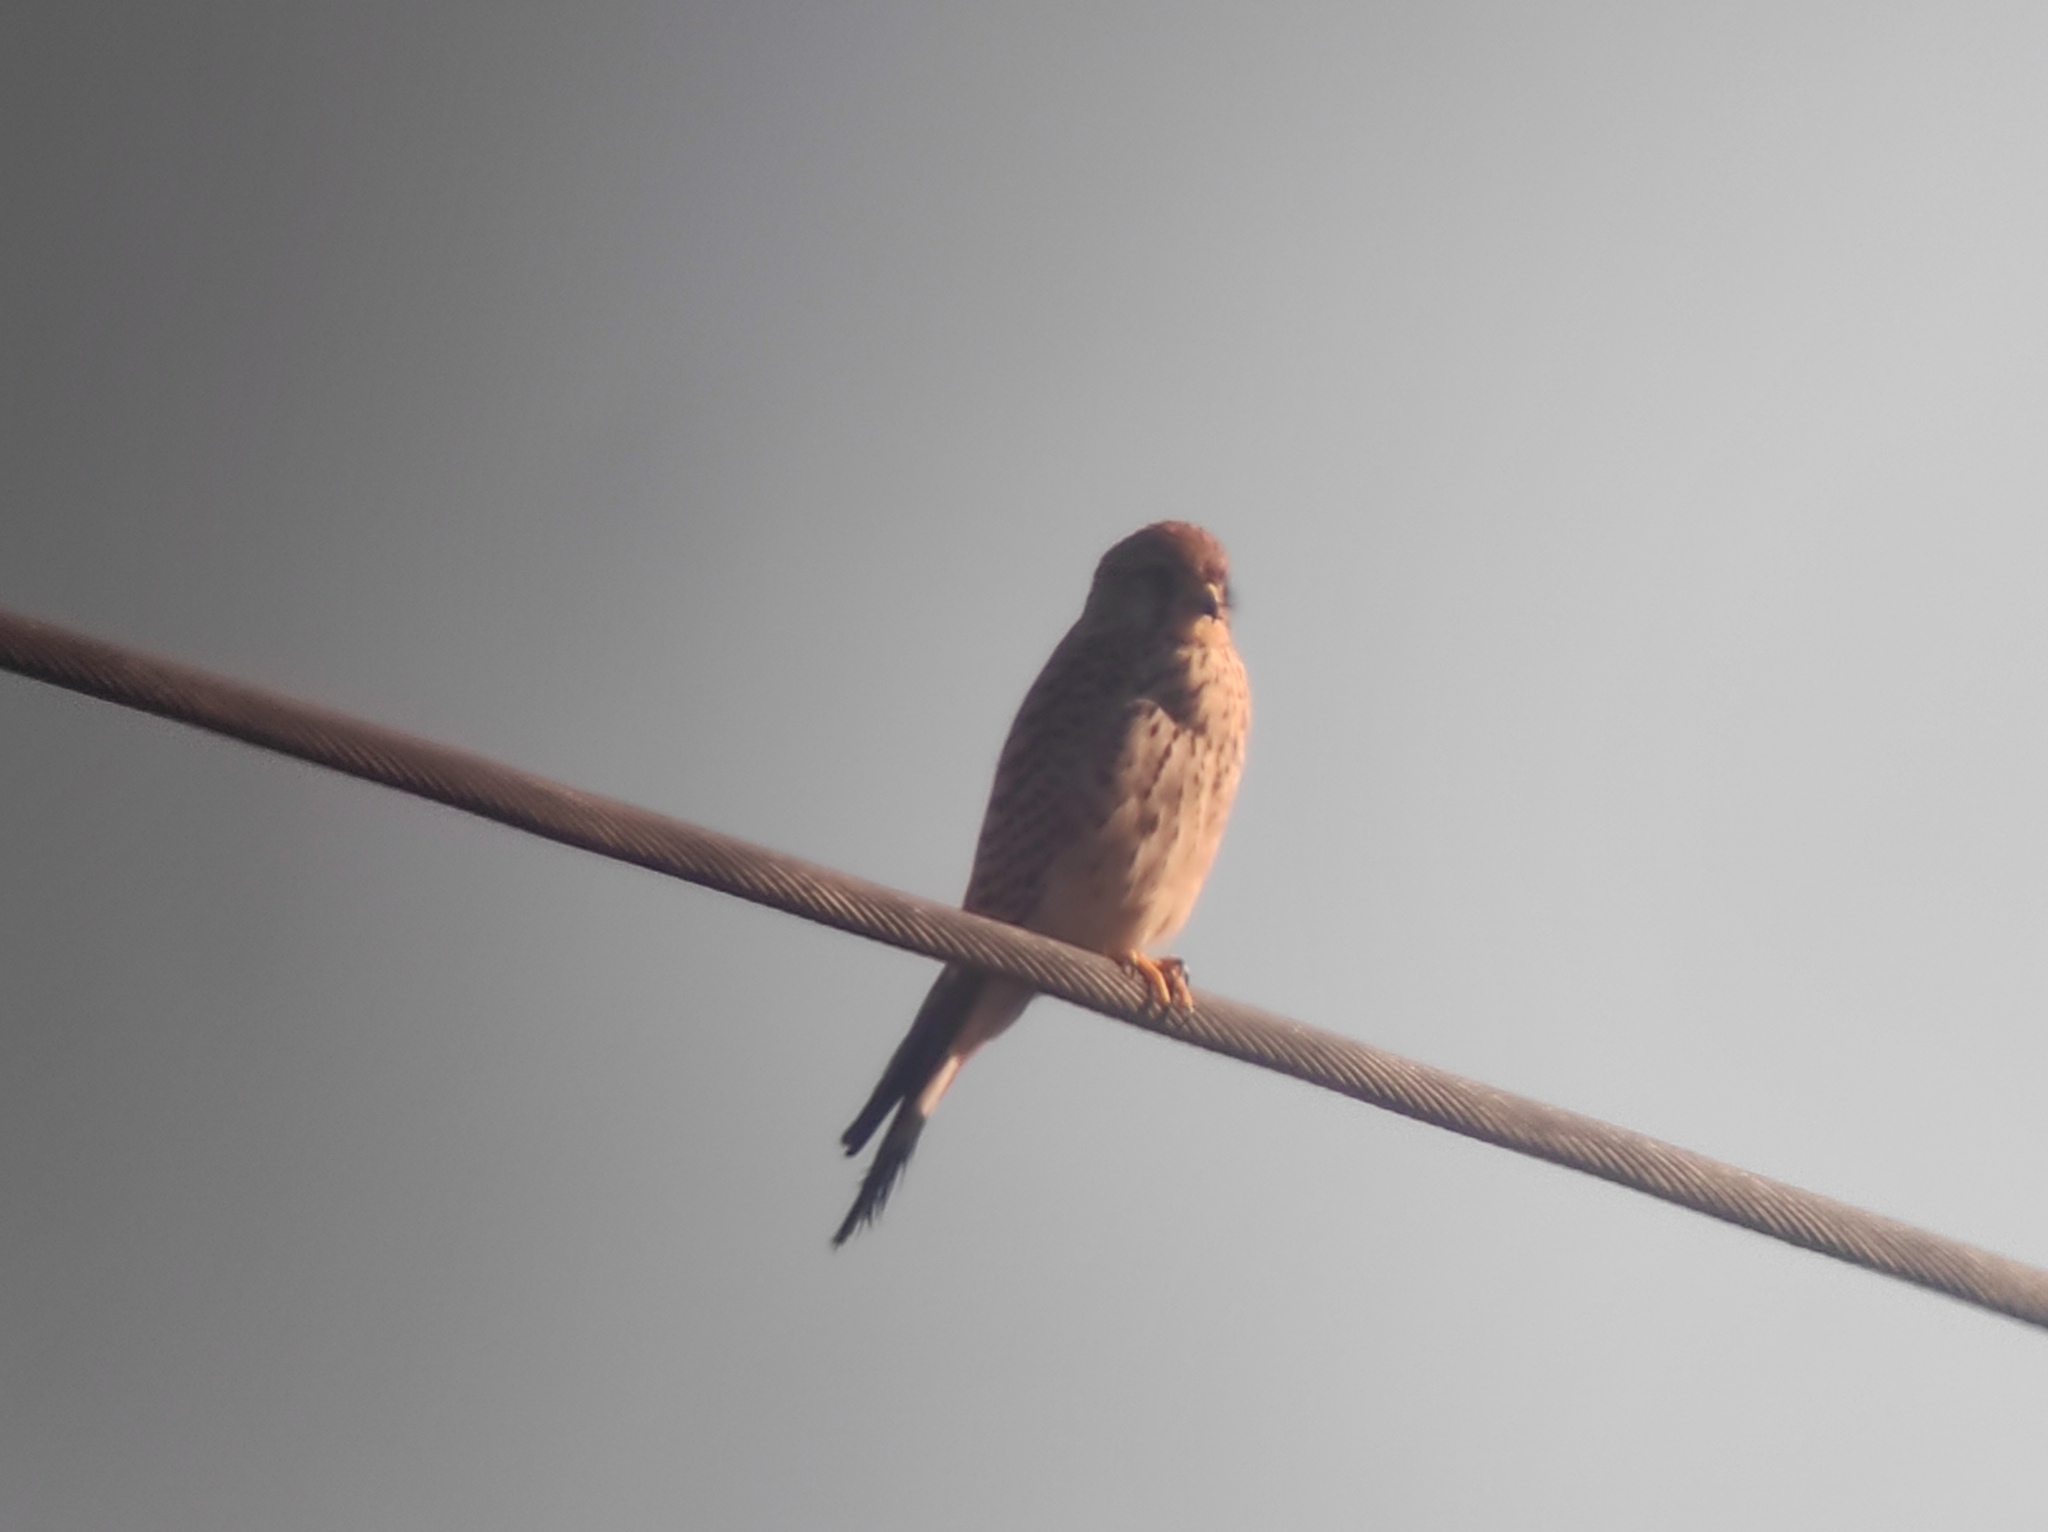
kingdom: Animalia
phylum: Chordata
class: Aves
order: Falconiformes
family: Falconidae
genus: Falco
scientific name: Falco tinnunculus
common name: Common kestrel
